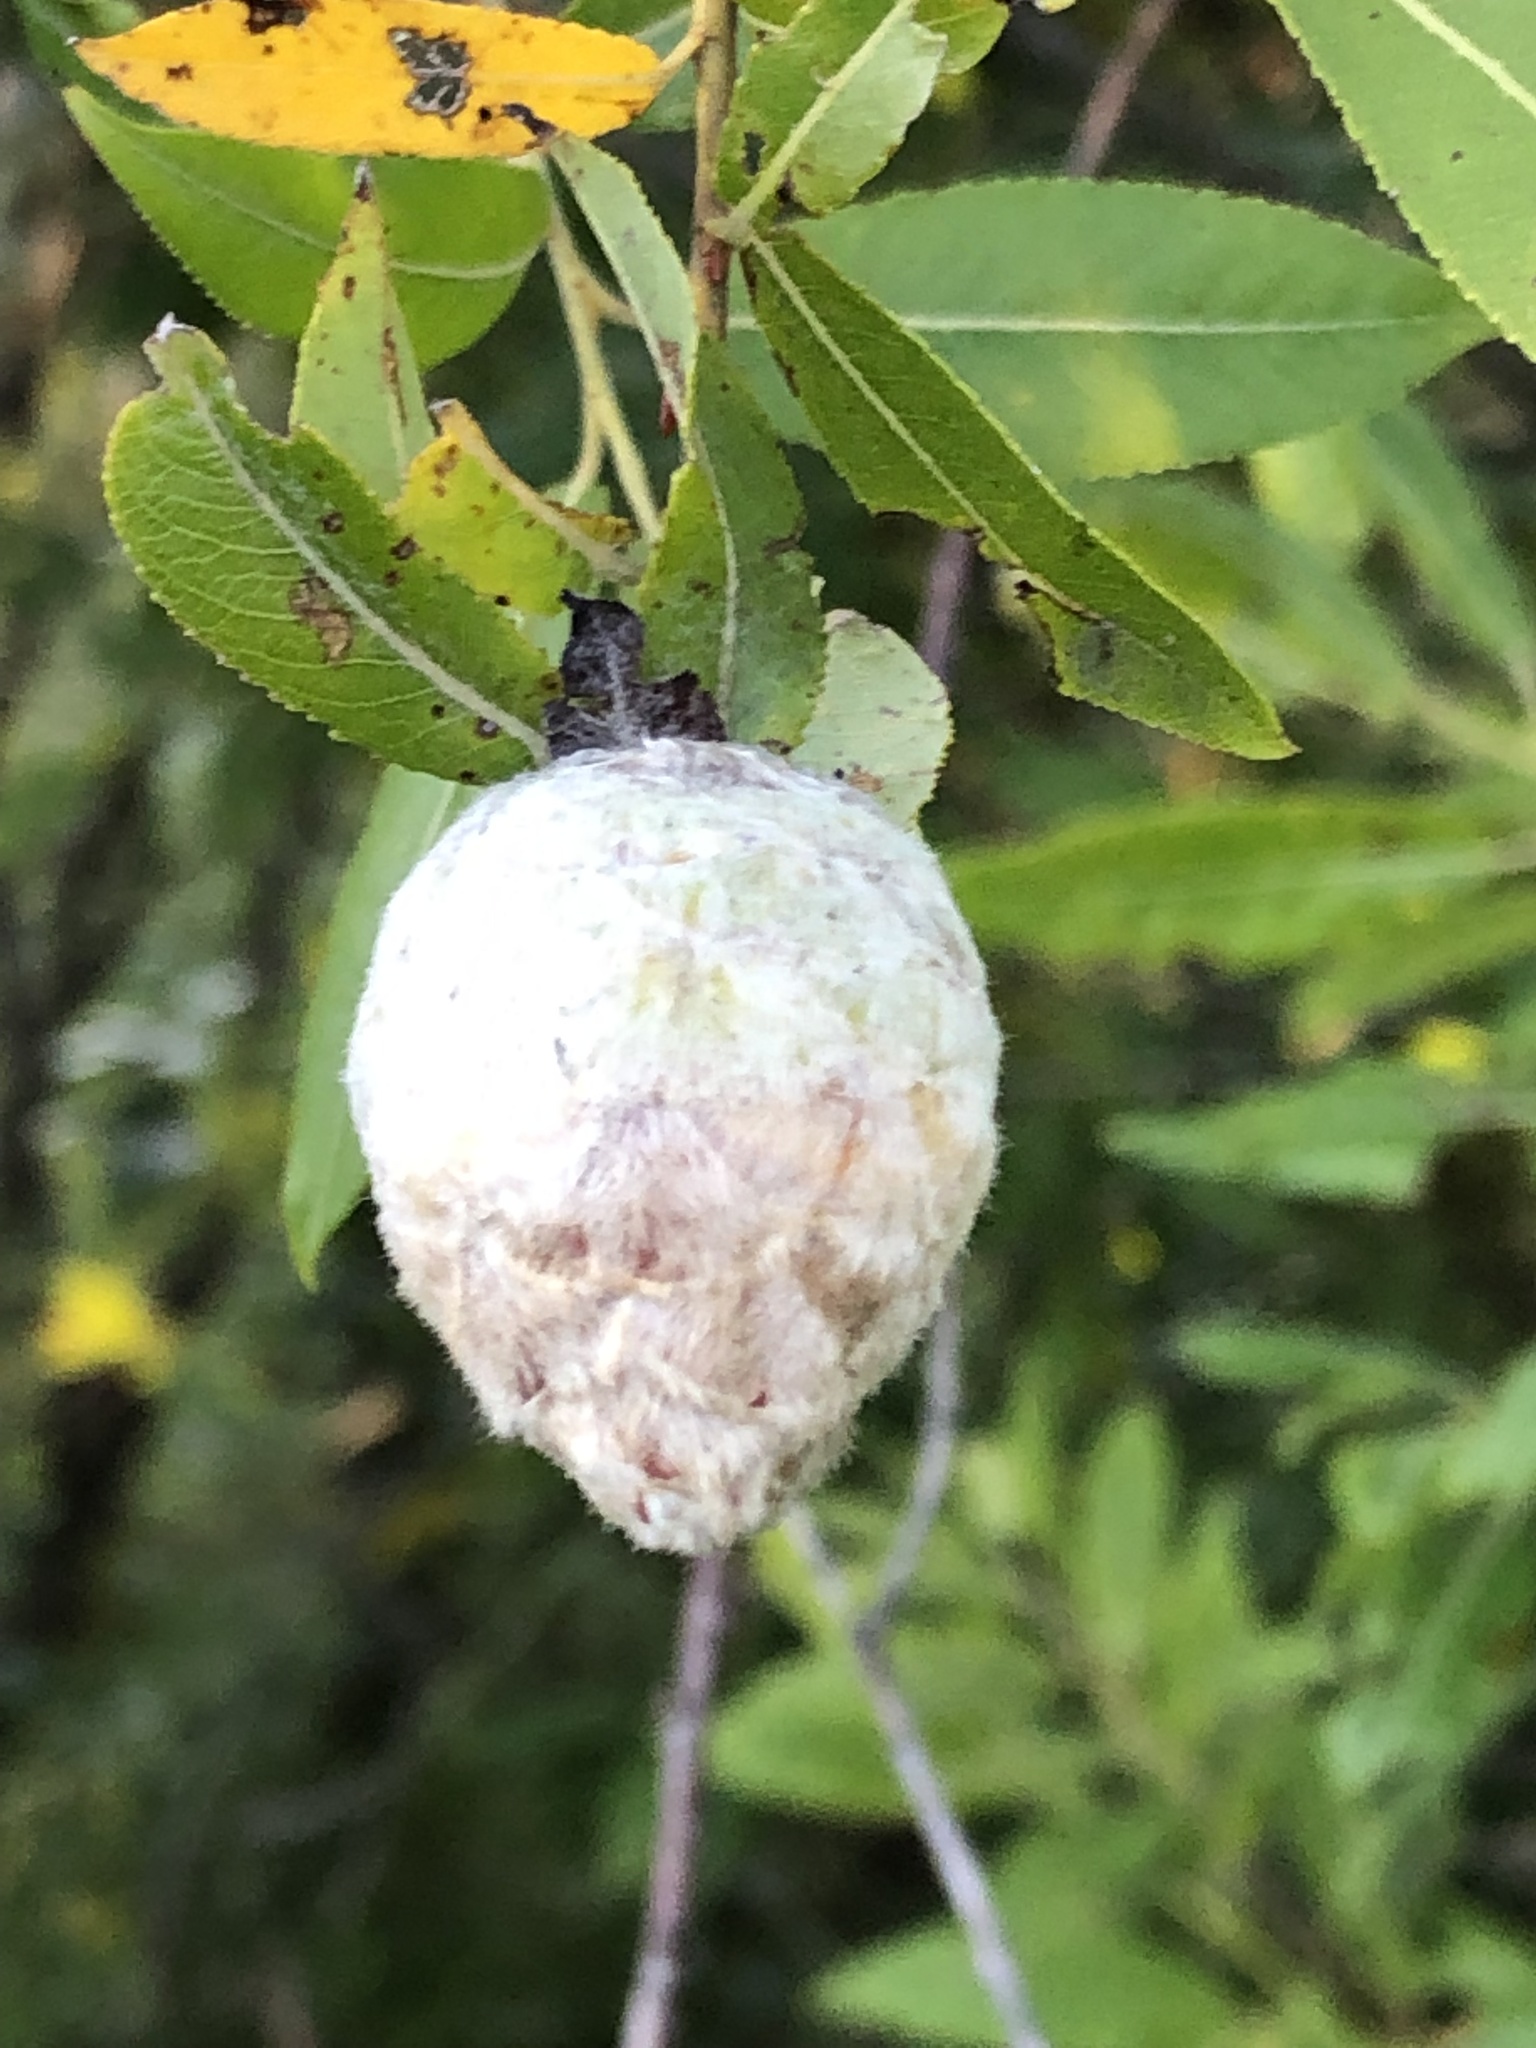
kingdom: Animalia
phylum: Arthropoda
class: Insecta
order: Diptera
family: Cecidomyiidae
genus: Rabdophaga
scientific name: Rabdophaga strobiloides
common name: Willow pinecone gall midge
